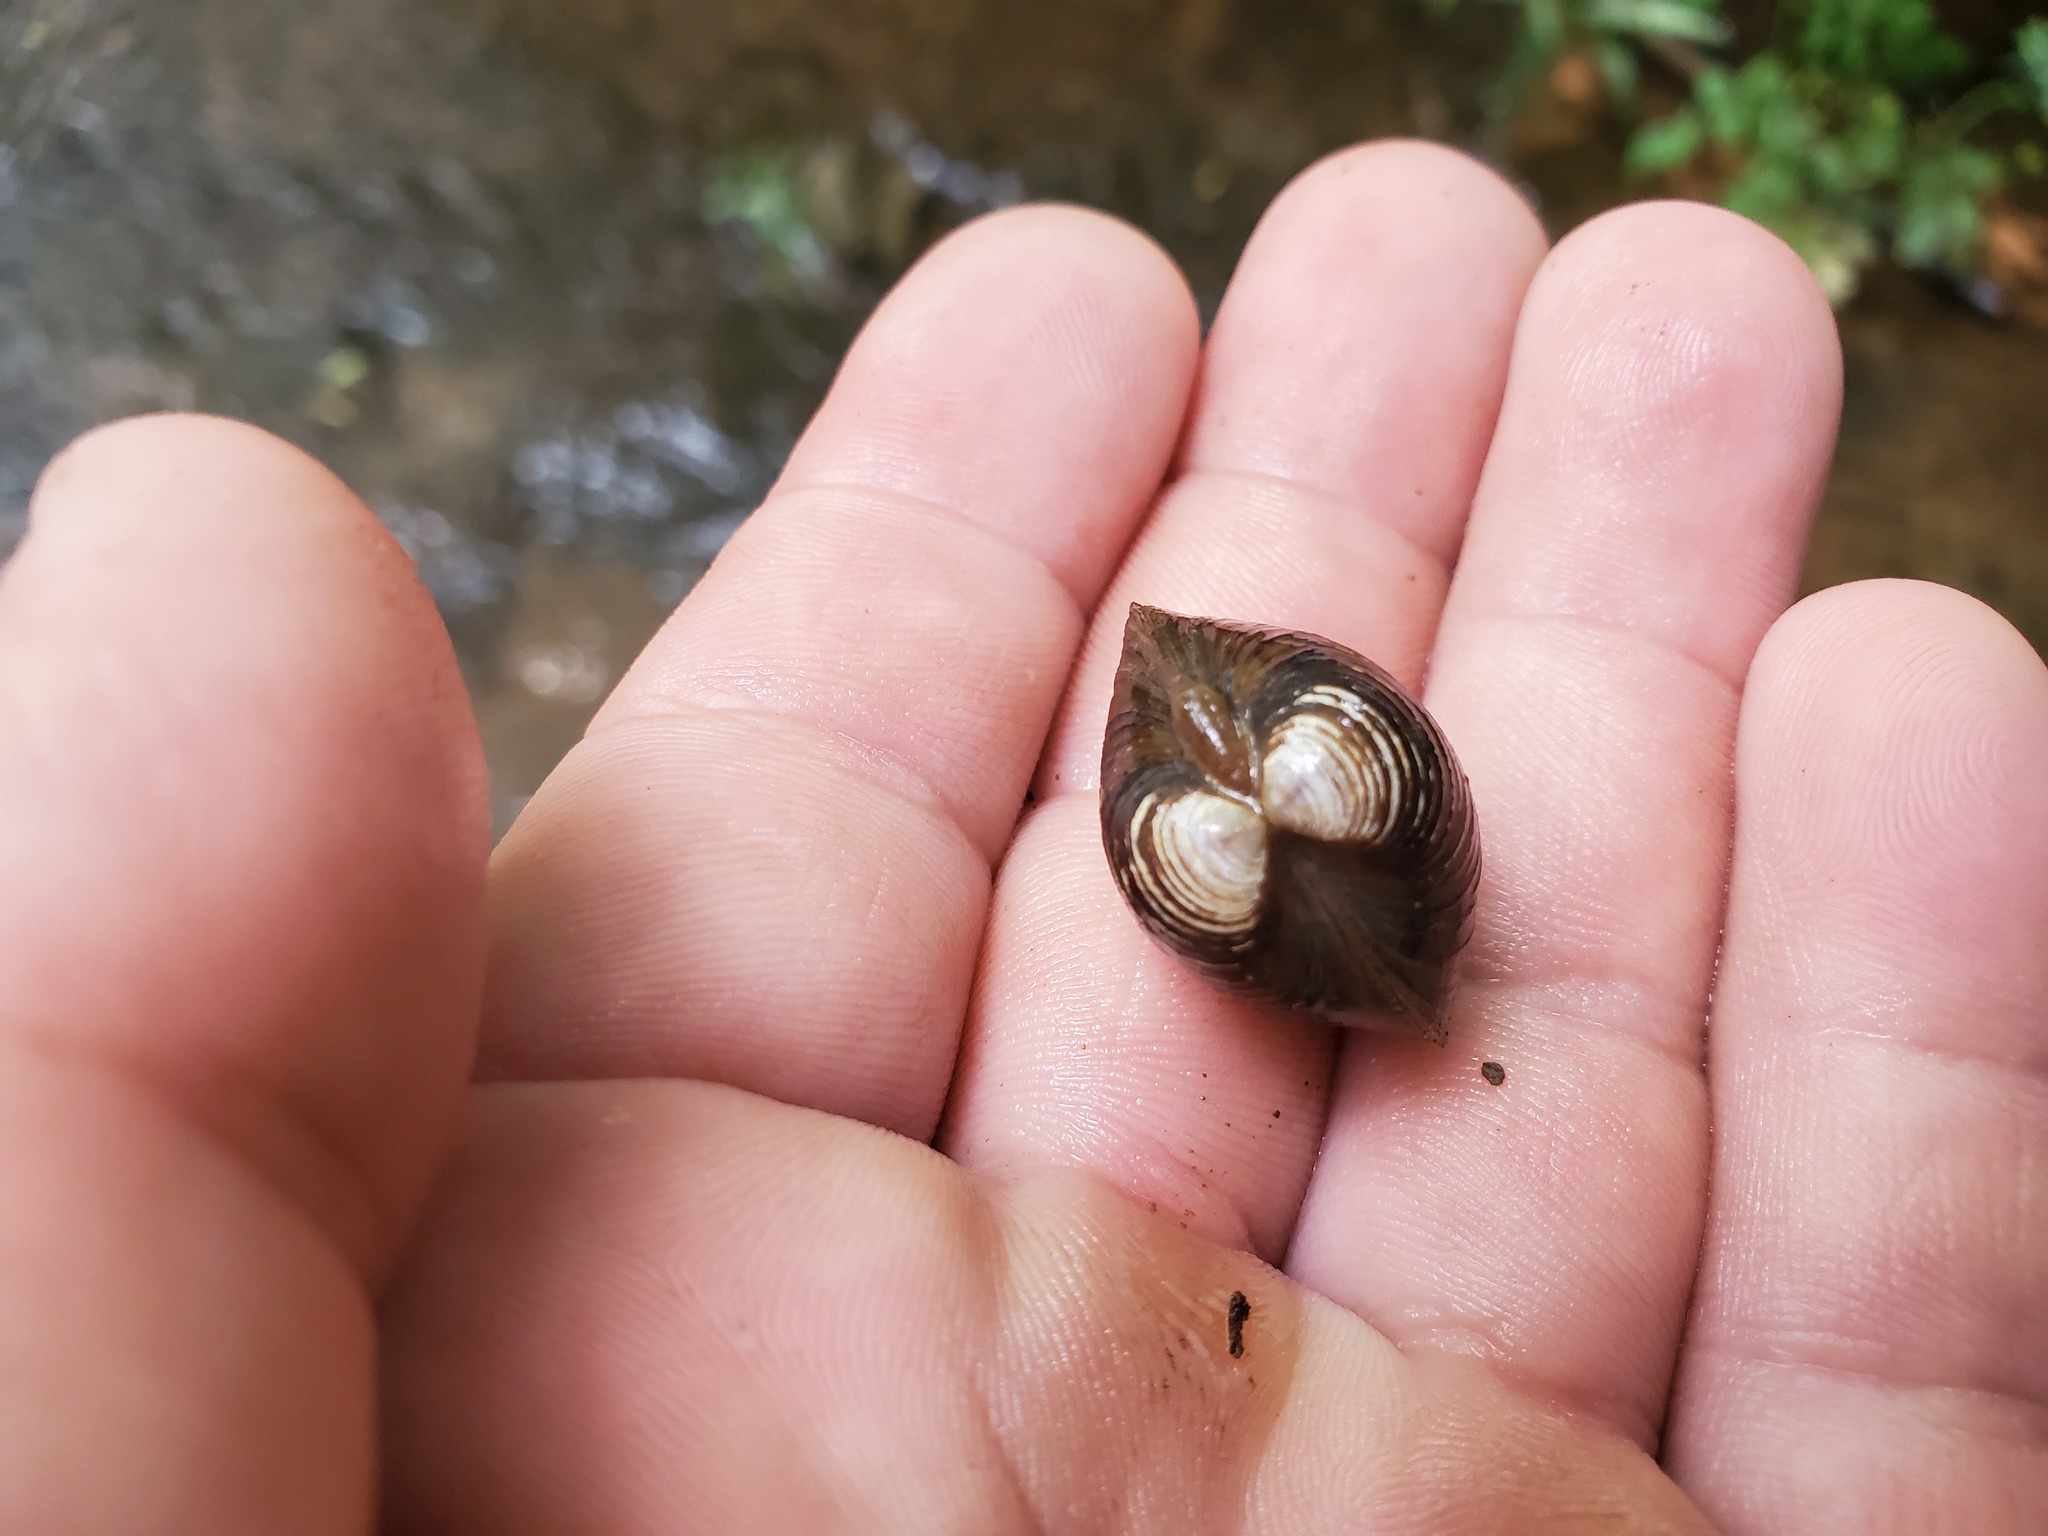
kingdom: Animalia
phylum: Mollusca
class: Bivalvia
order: Venerida
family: Cyrenidae
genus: Corbicula
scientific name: Corbicula fluminea
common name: Asian clam
